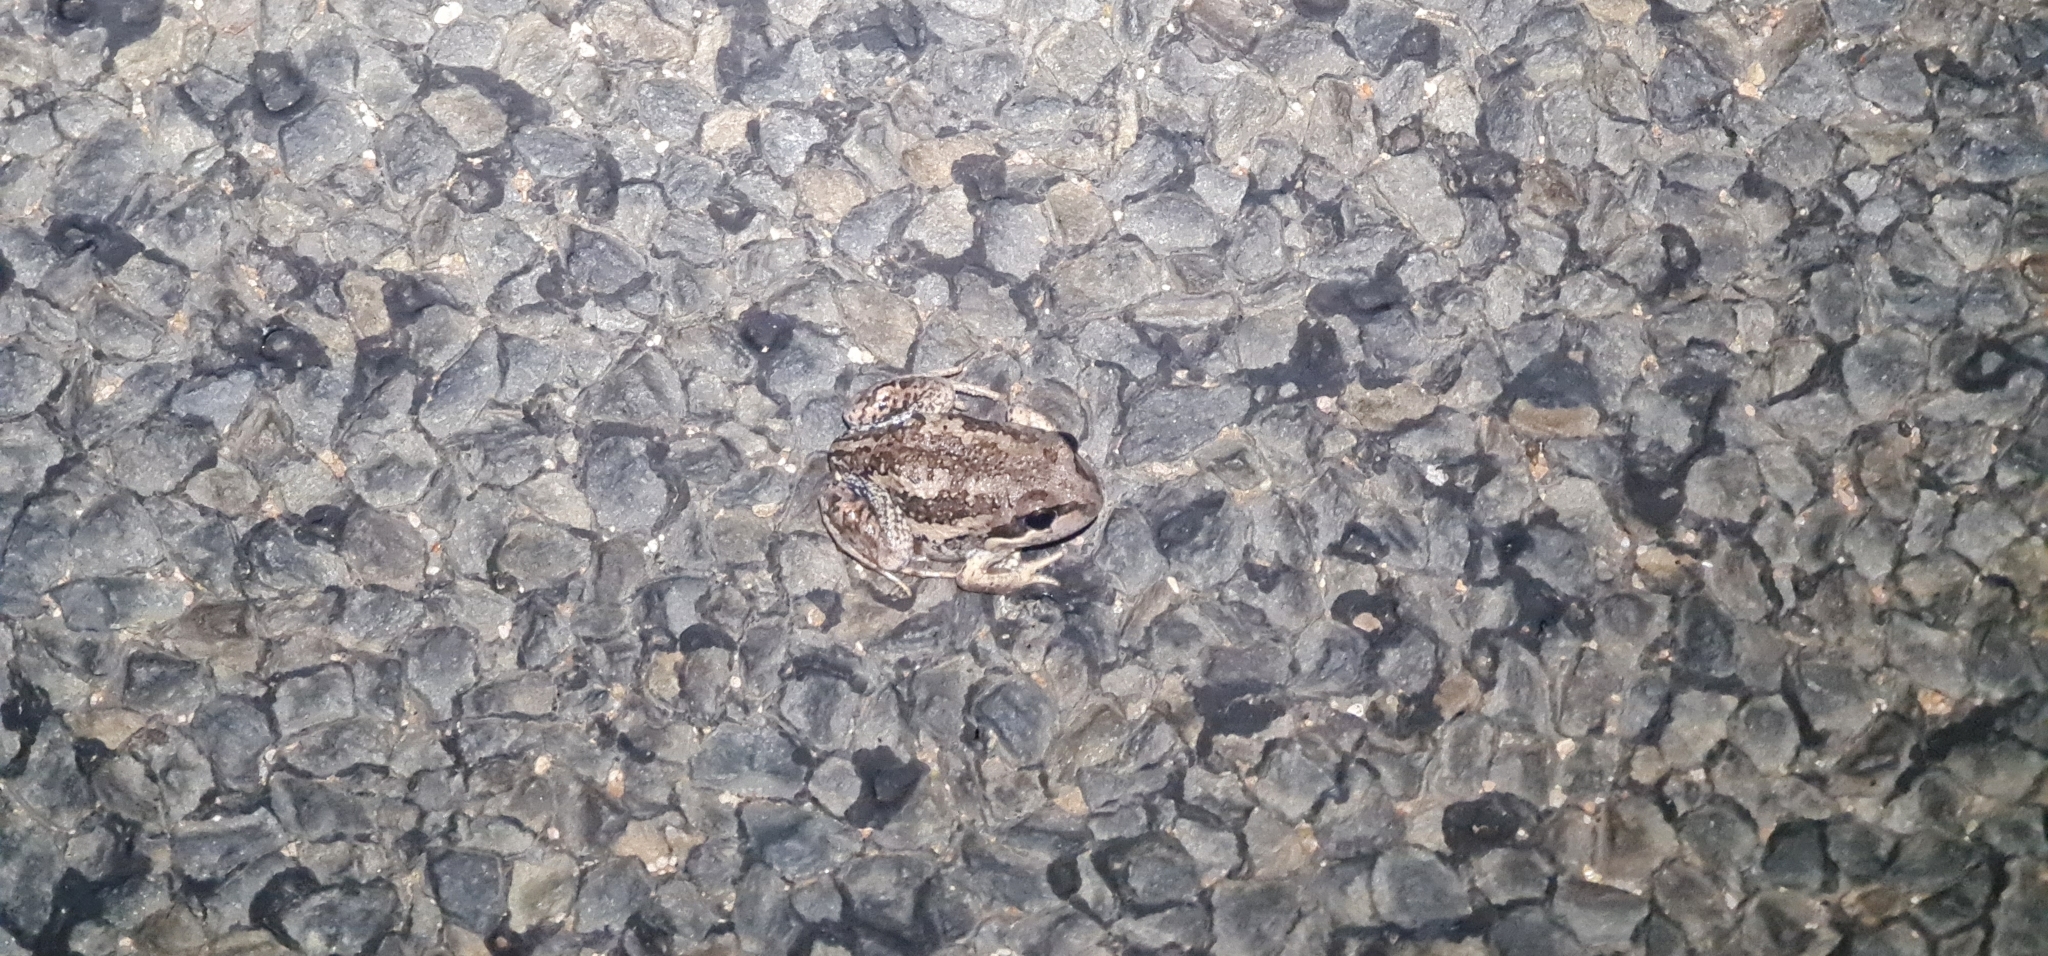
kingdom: Animalia
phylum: Chordata
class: Amphibia
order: Anura
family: Limnodynastidae
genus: Limnodynastes
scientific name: Limnodynastes dumerilii
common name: Banjo frog
